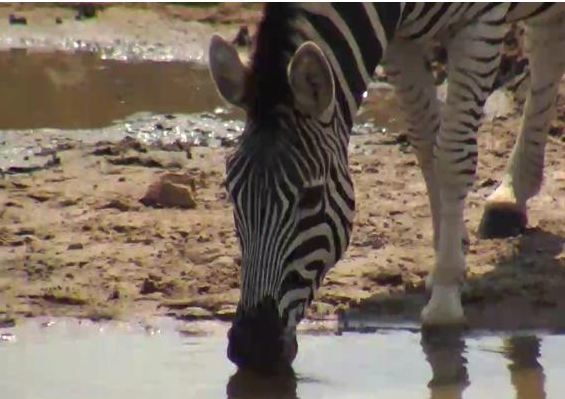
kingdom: Animalia
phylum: Chordata
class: Mammalia
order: Perissodactyla
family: Equidae
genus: Equus
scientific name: Equus quagga
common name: Plains zebra
